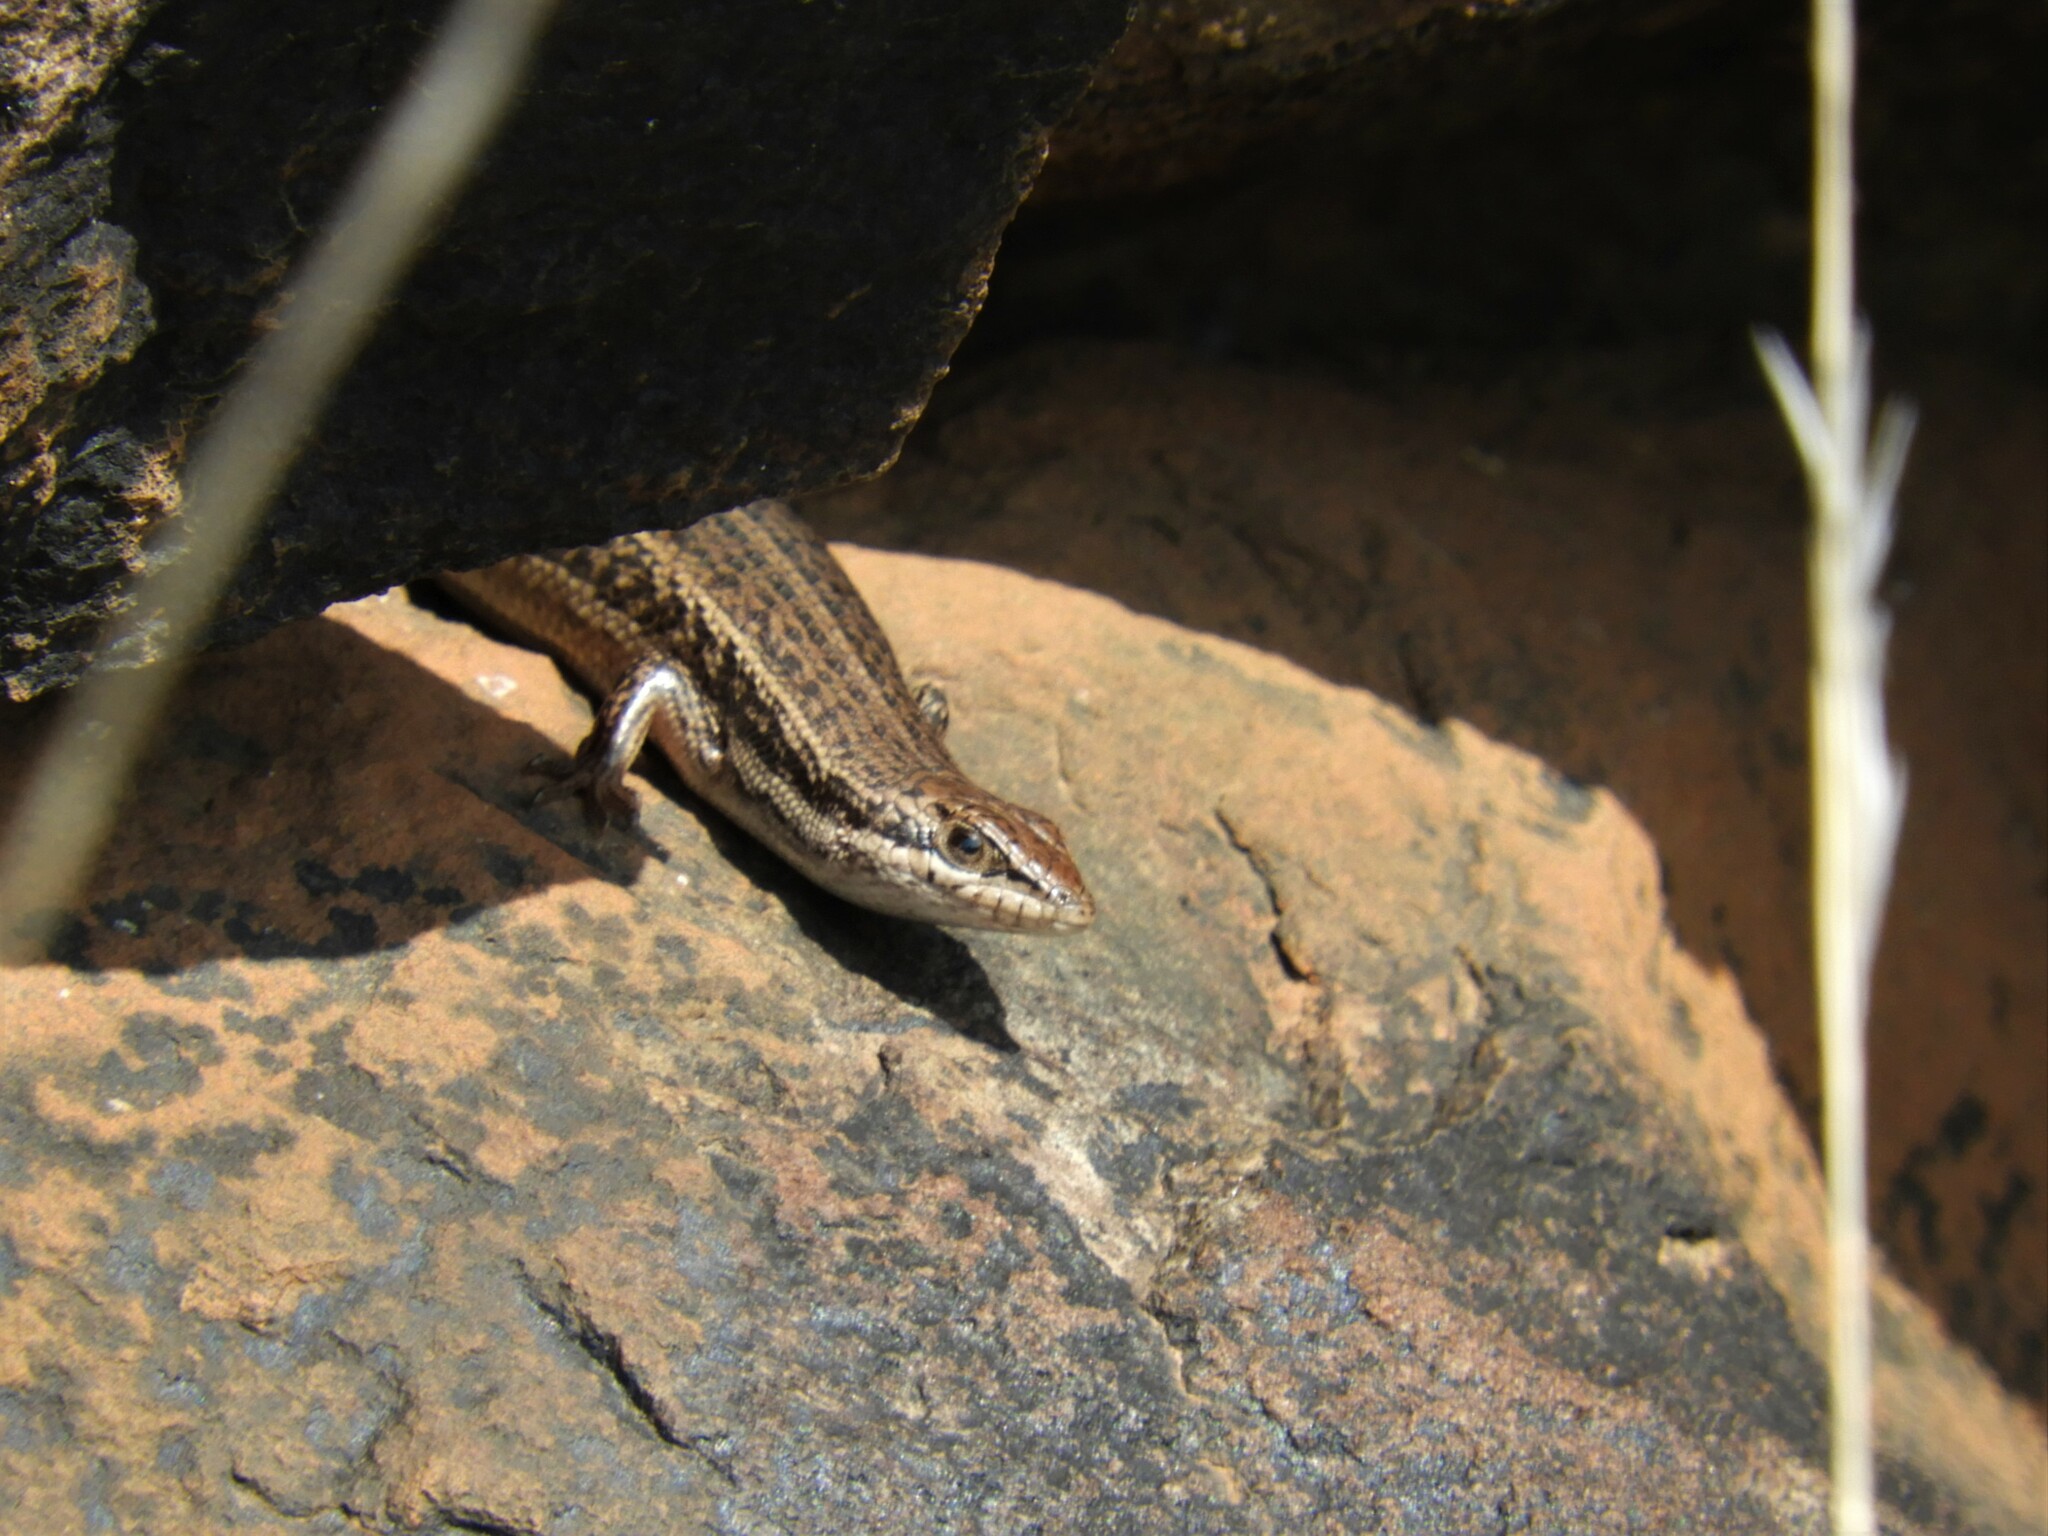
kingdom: Animalia
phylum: Chordata
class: Squamata
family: Scincidae
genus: Trachylepis
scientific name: Trachylepis variegata
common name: Variegated skink
